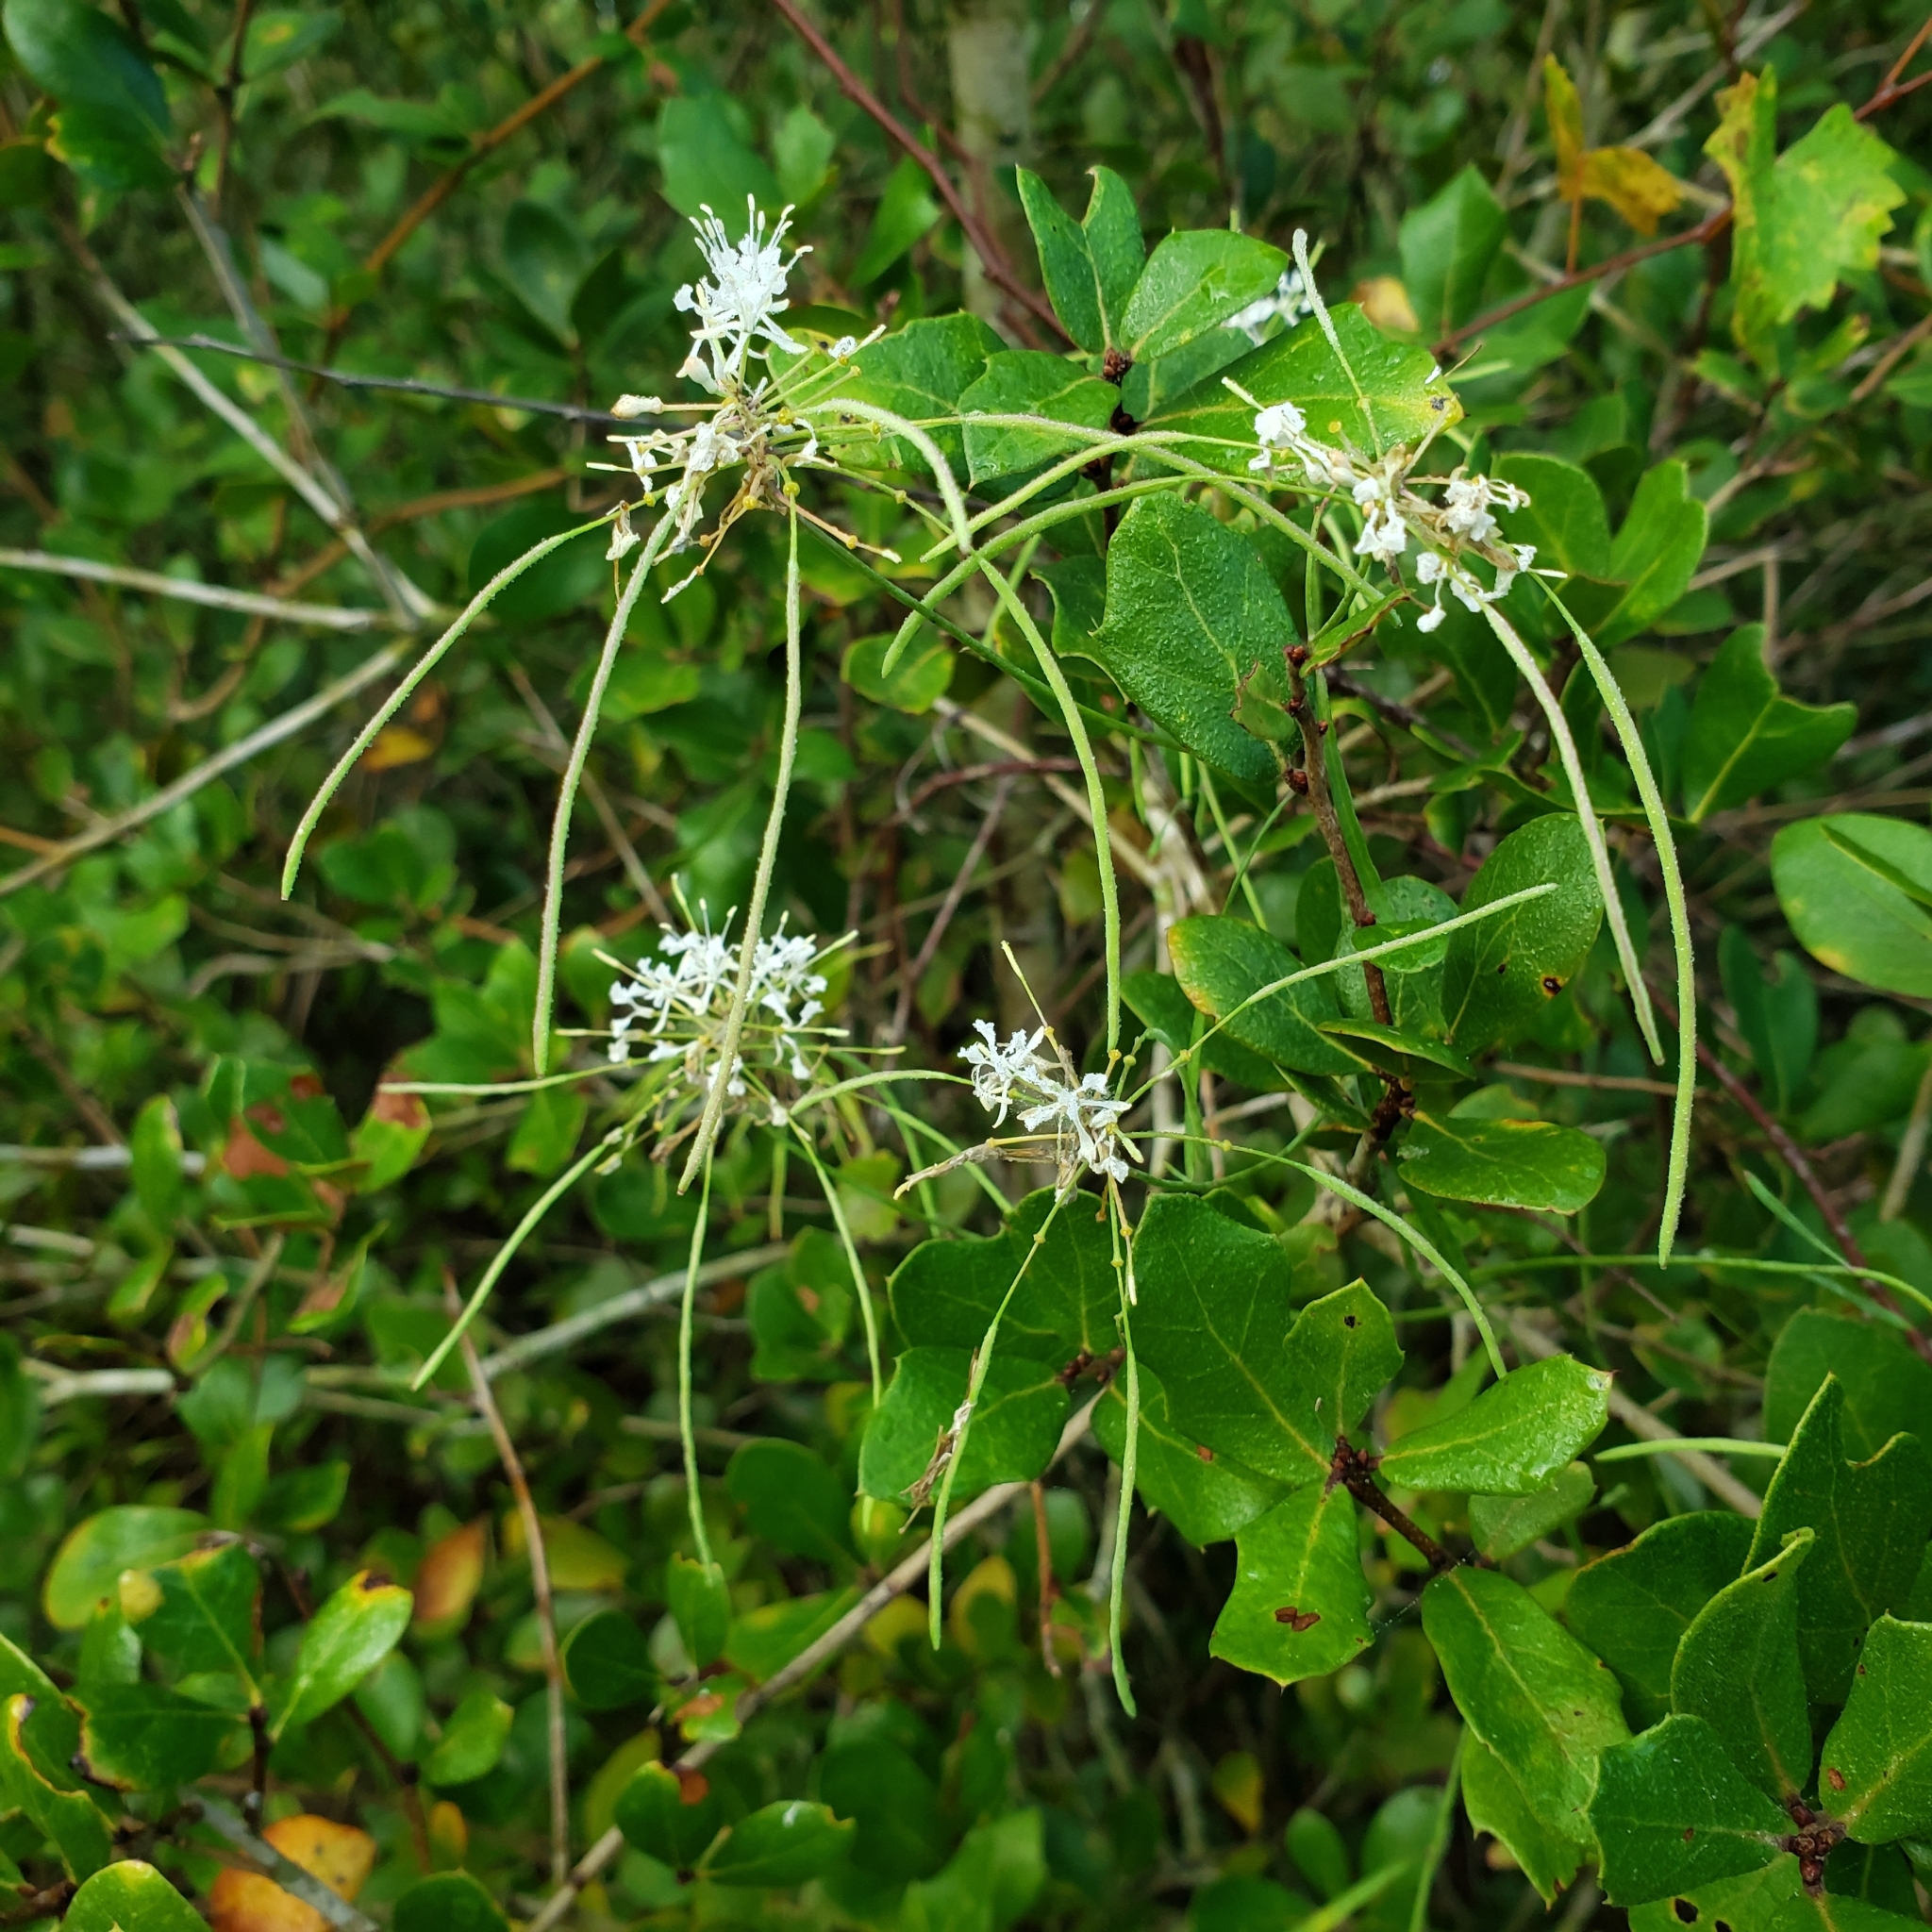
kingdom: Plantae
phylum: Tracheophyta
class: Magnoliopsida
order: Brassicales
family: Brassicaceae
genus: Warea
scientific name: Warea carteri
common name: Carter's mustard
